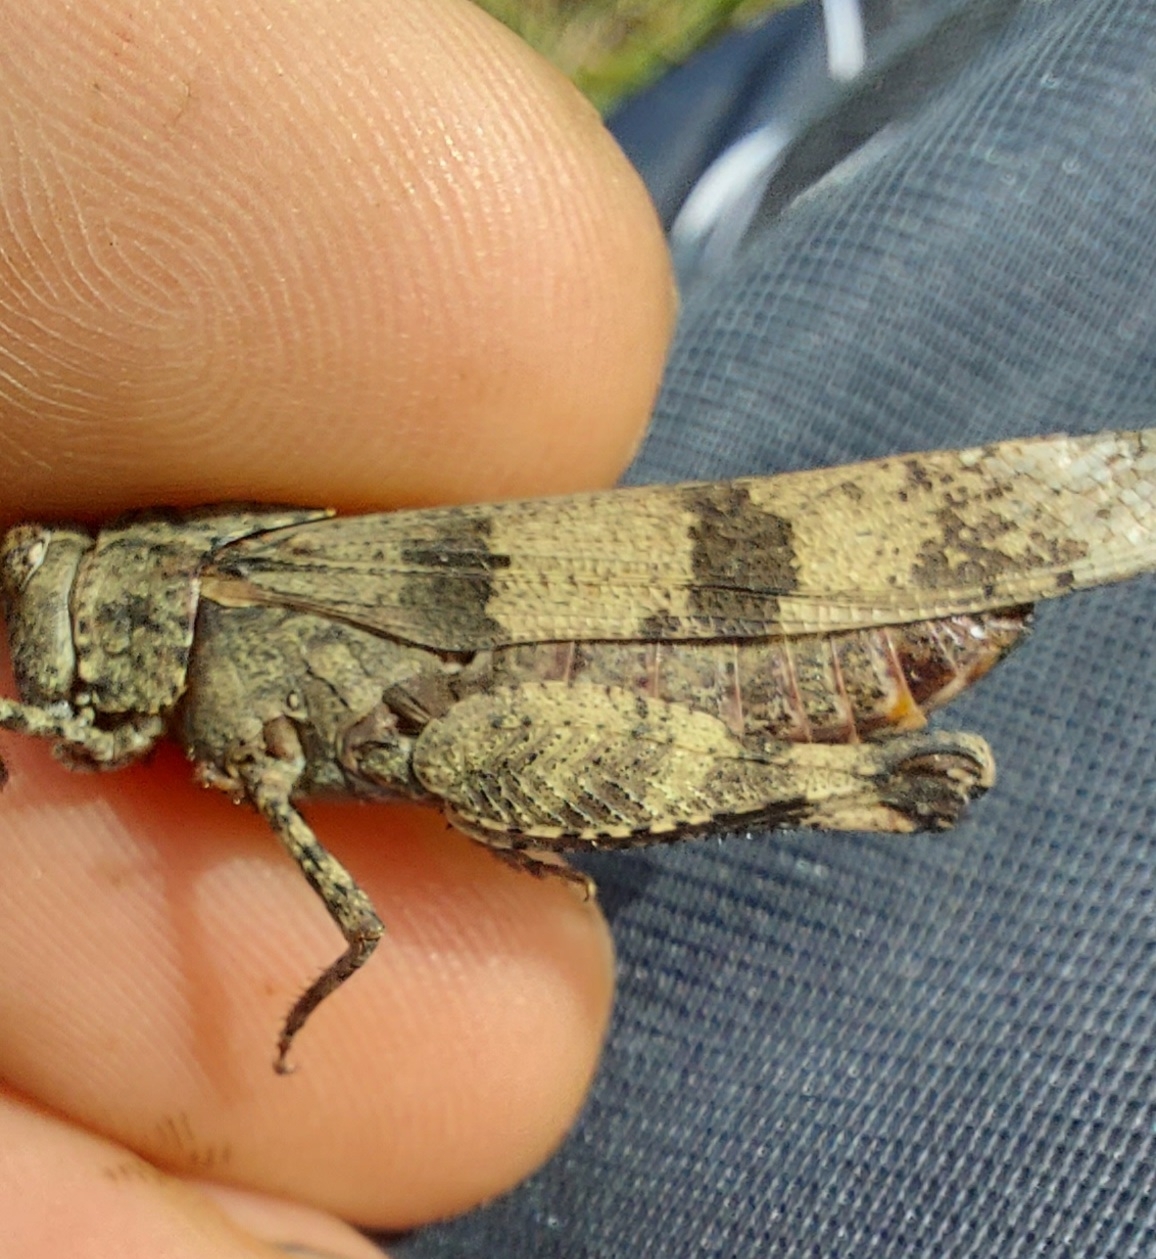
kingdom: Animalia
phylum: Arthropoda
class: Insecta
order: Orthoptera
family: Acrididae
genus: Oedipoda
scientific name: Oedipoda caerulescens
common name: Blue-winged grasshopper
